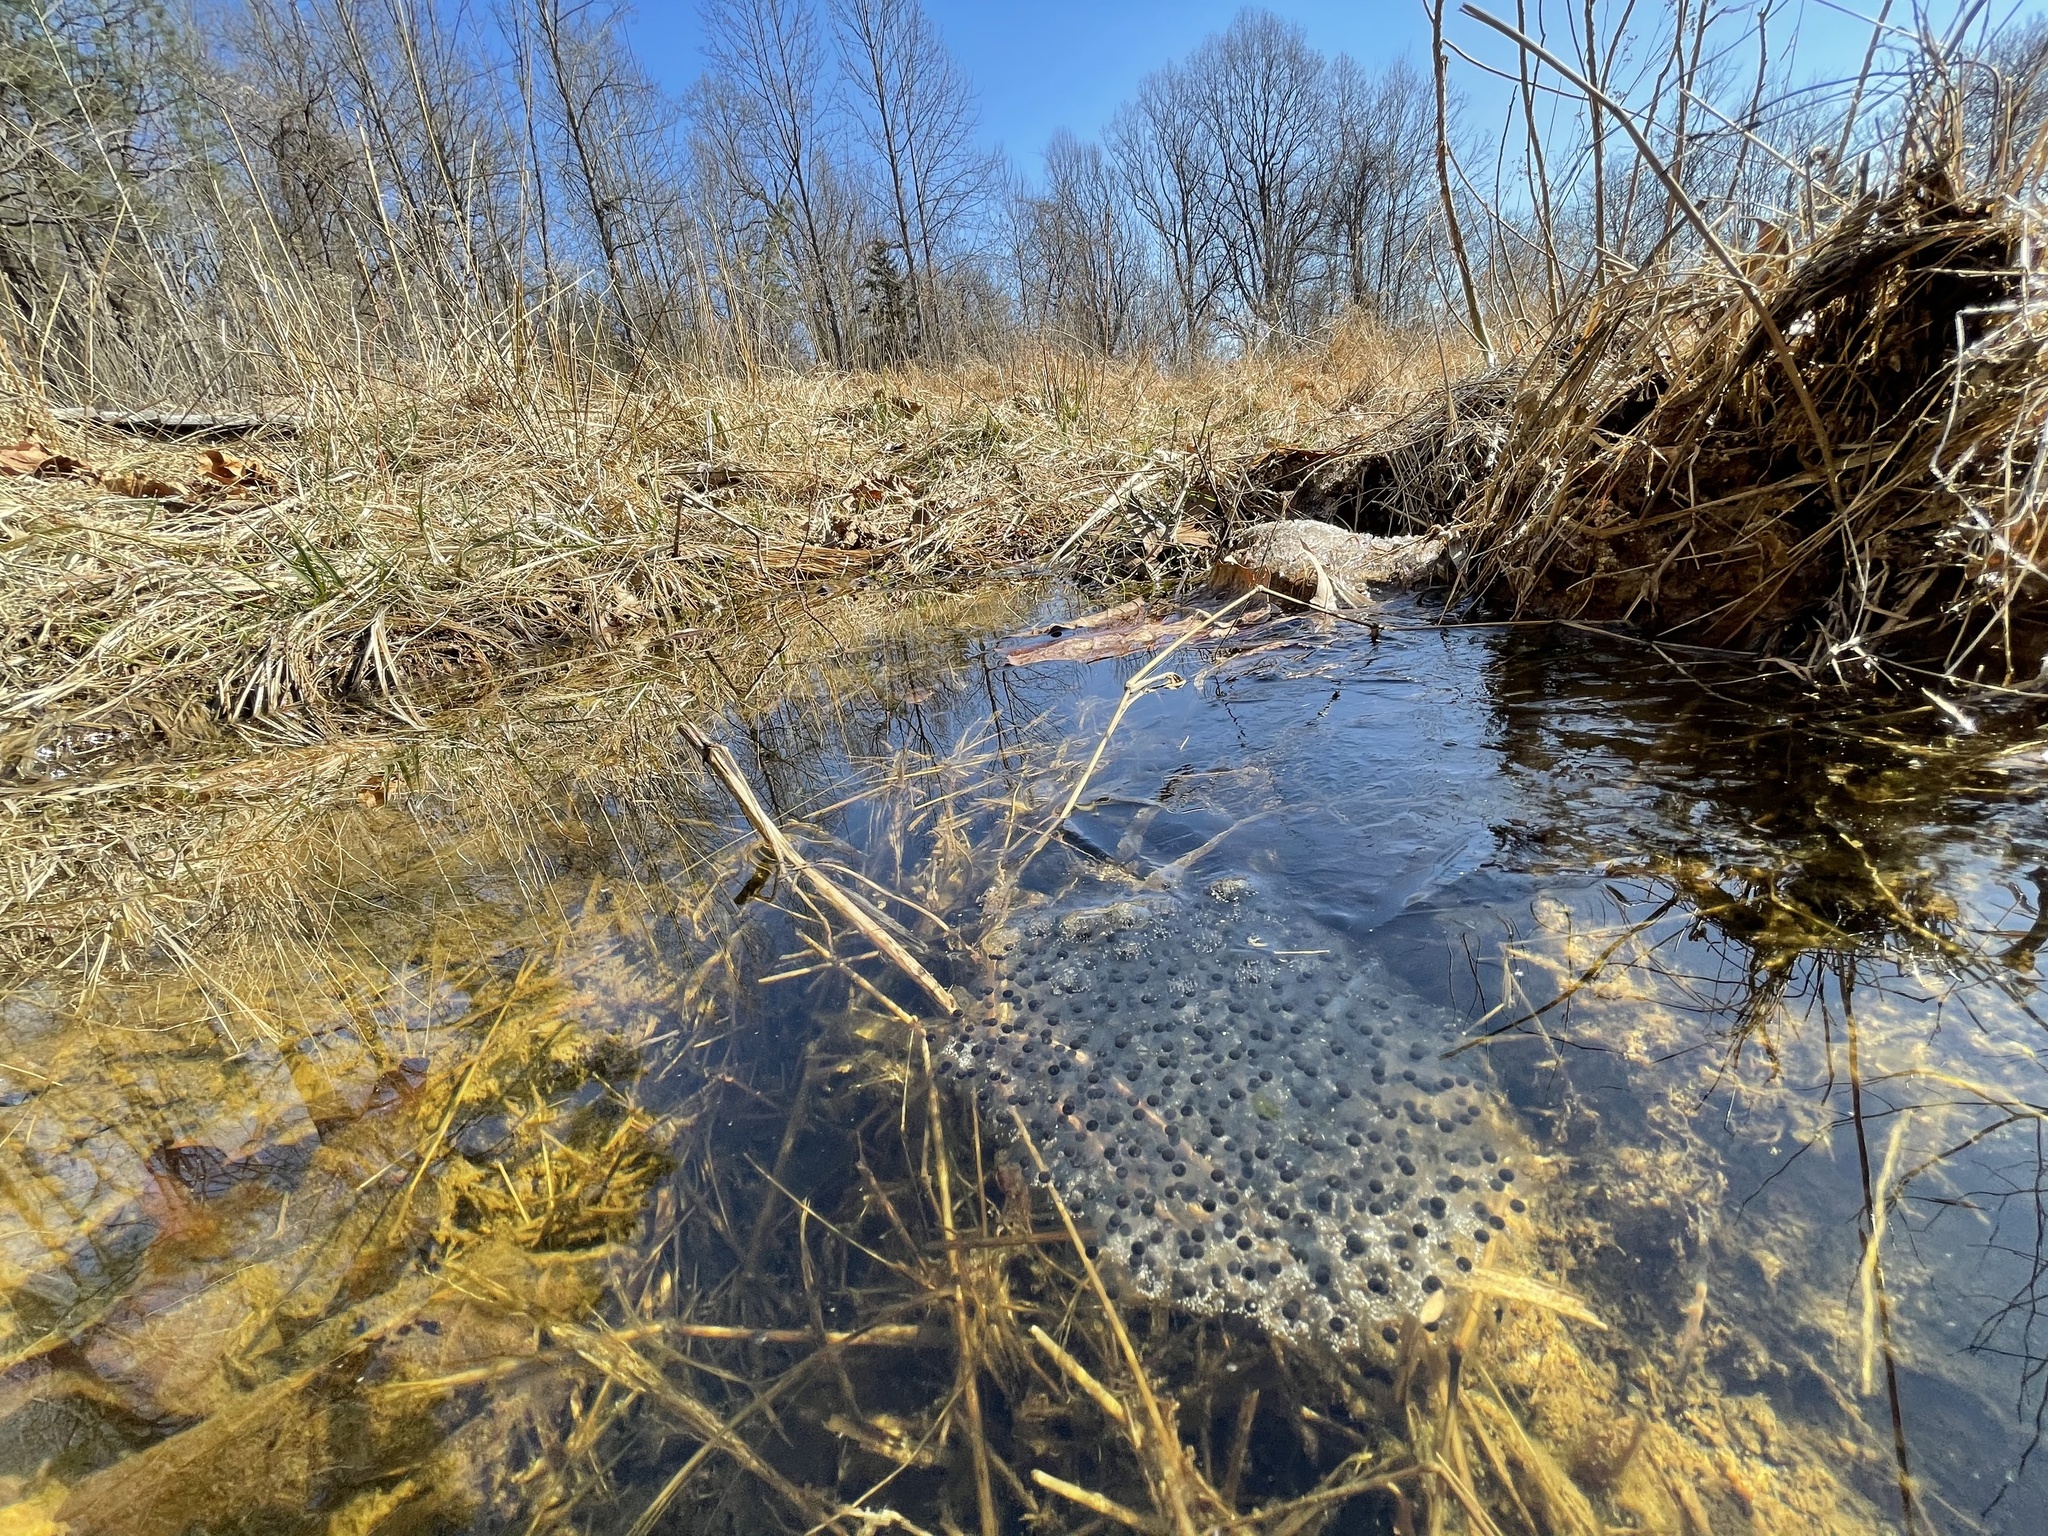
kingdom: Animalia
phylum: Chordata
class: Amphibia
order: Anura
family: Ranidae
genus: Lithobates
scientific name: Lithobates sylvaticus
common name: Wood frog
